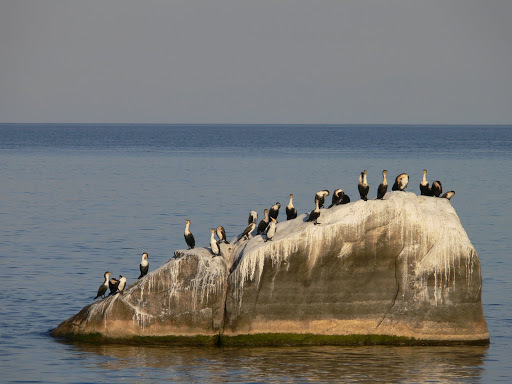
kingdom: Animalia
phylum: Chordata
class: Aves
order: Suliformes
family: Phalacrocoracidae
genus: Phalacrocorax
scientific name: Phalacrocorax carbo
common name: Great cormorant
